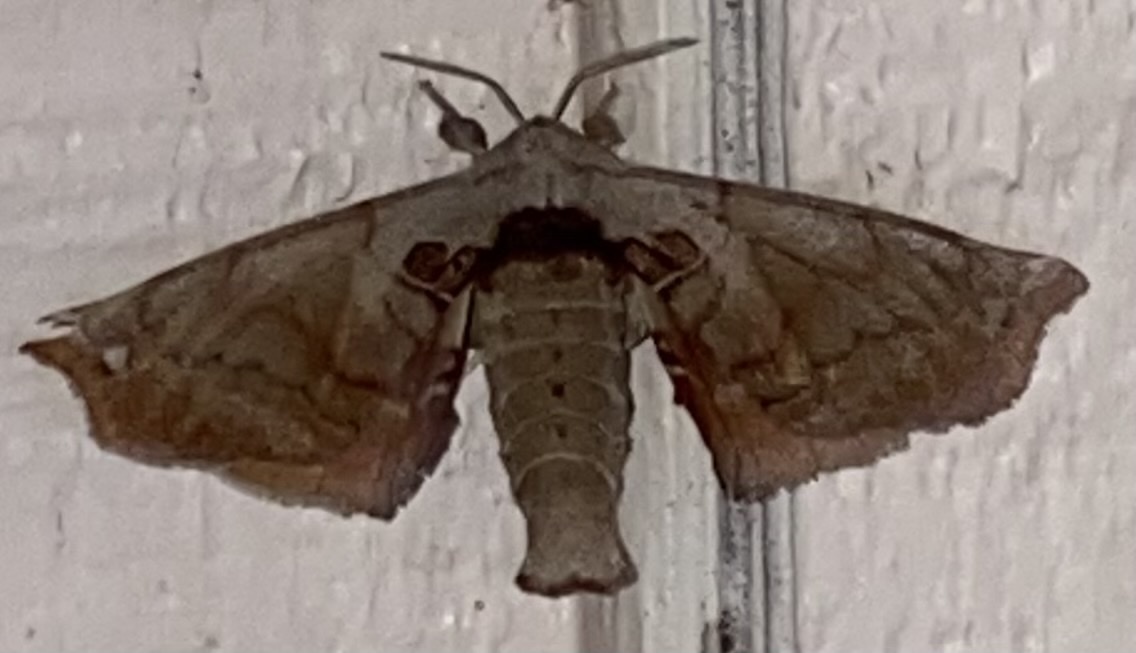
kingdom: Animalia
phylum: Arthropoda
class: Insecta
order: Lepidoptera
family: Apatelodidae
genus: Hygrochroa
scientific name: Hygrochroa Apatelodes torrefacta
